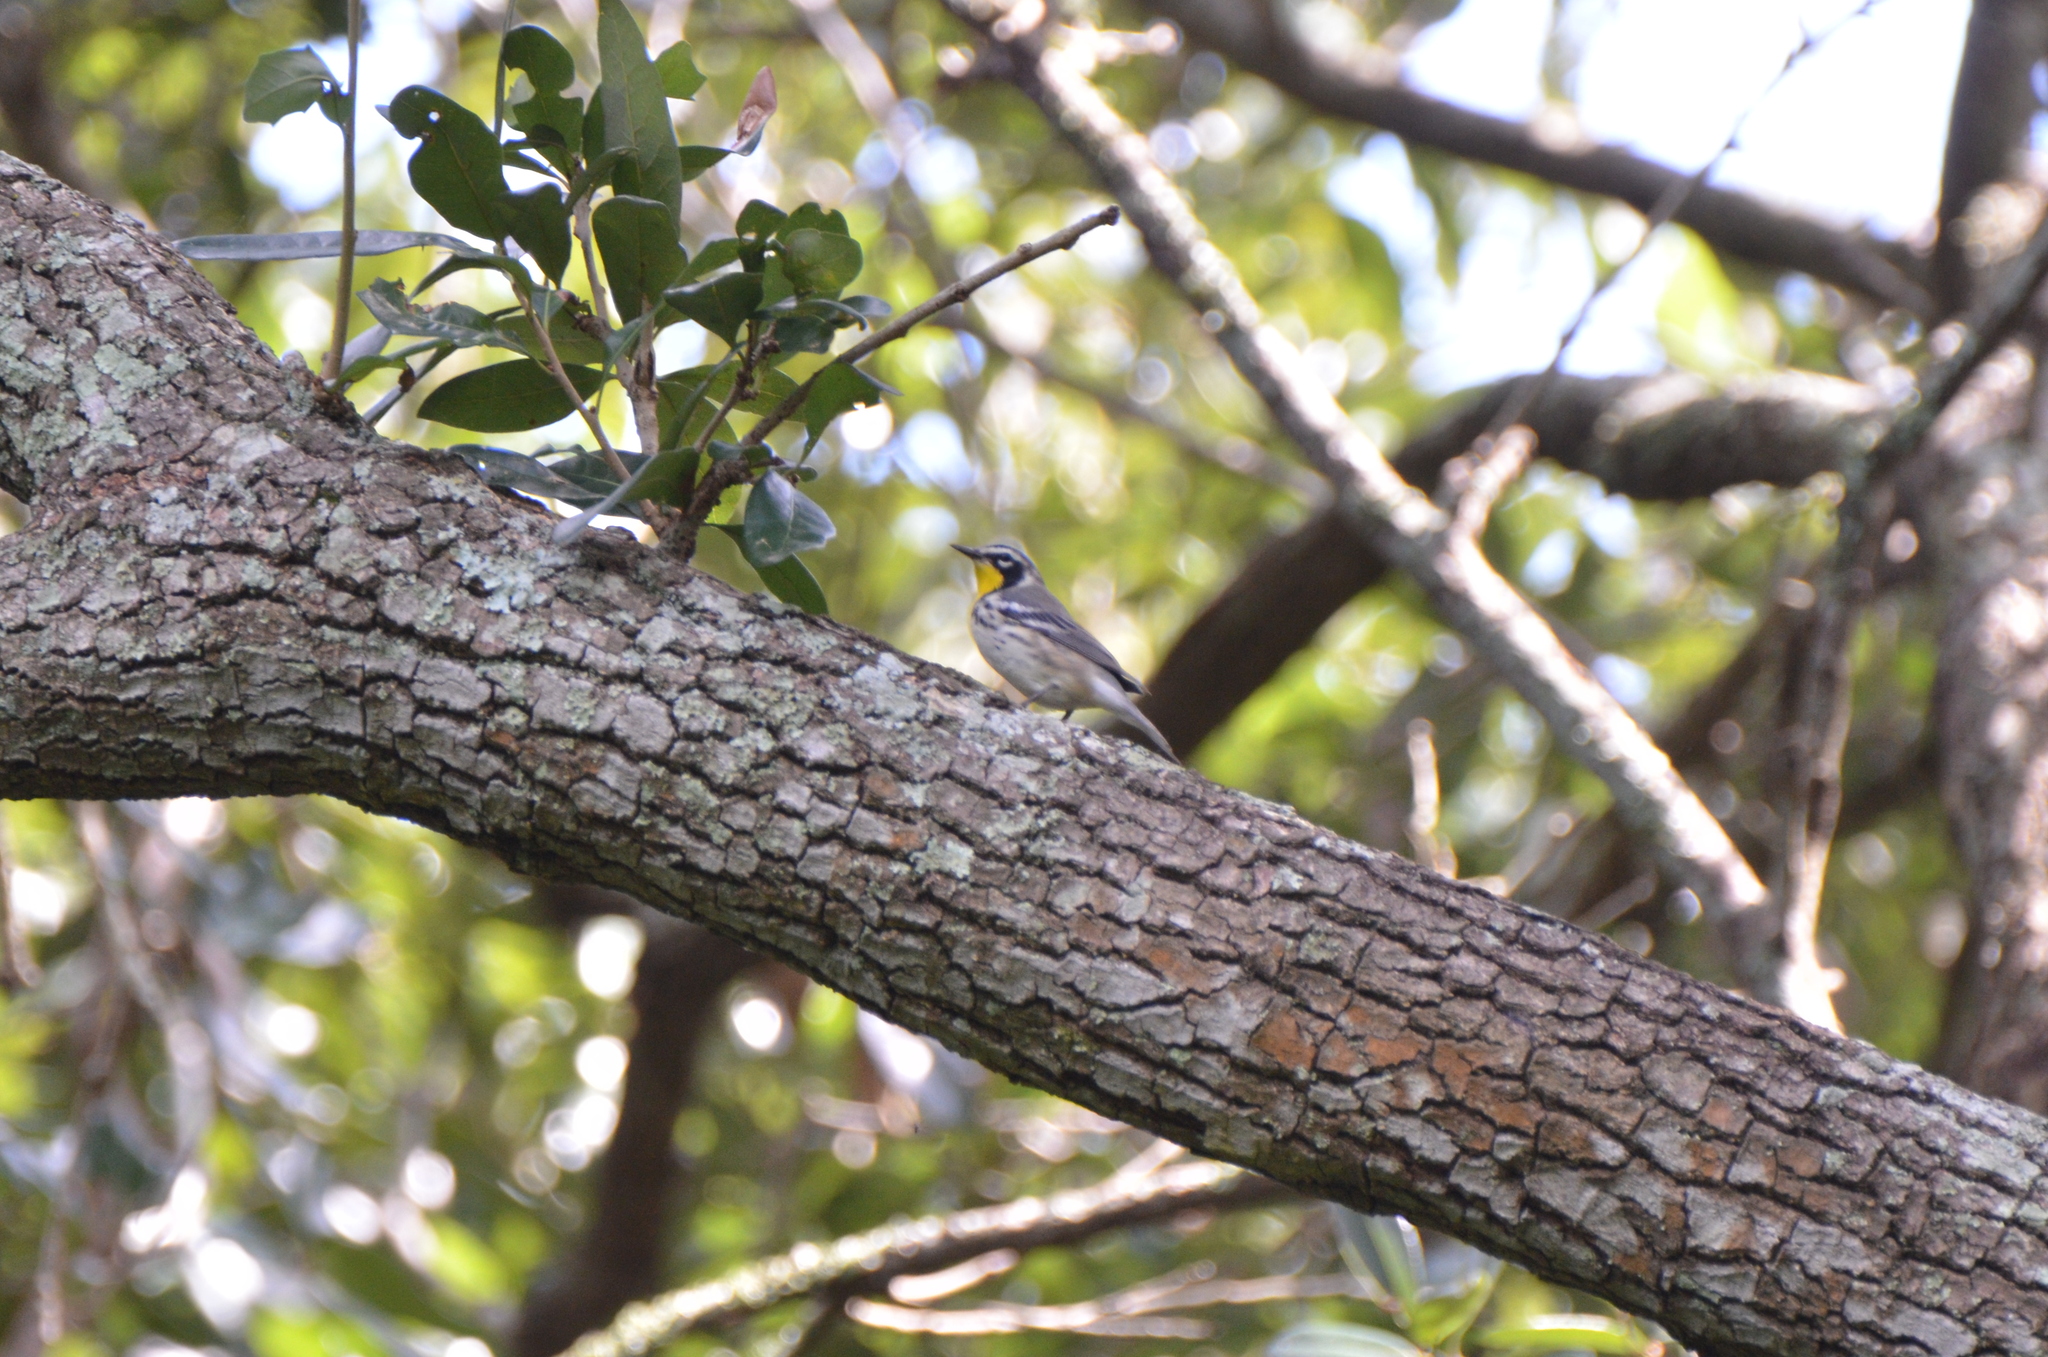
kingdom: Animalia
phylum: Chordata
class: Aves
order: Passeriformes
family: Parulidae
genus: Setophaga
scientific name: Setophaga dominica
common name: Yellow-throated warbler
